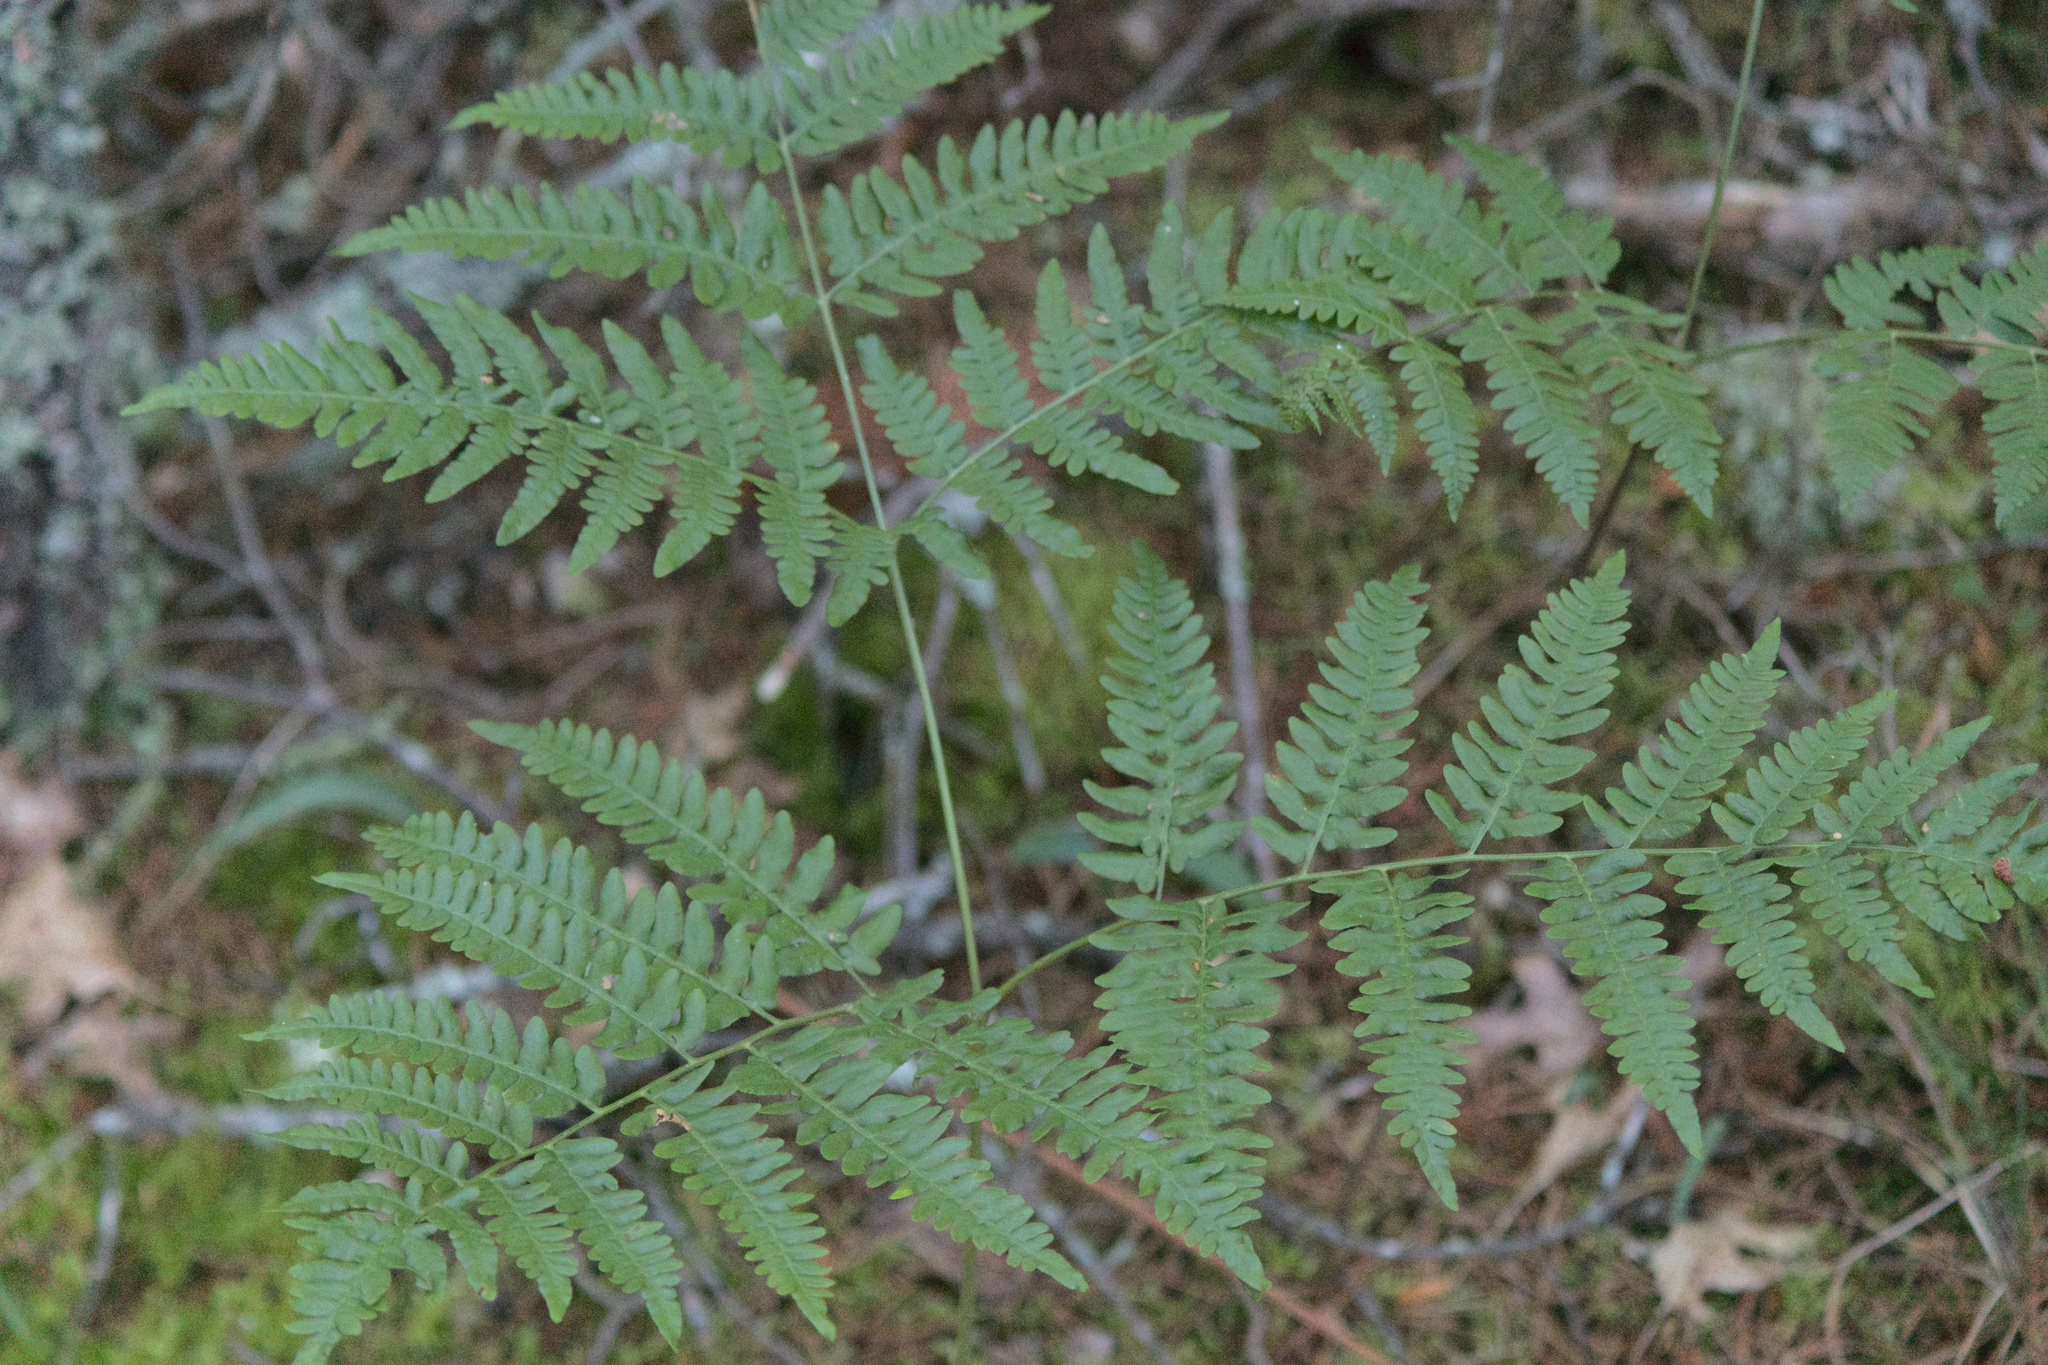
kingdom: Plantae
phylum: Tracheophyta
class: Polypodiopsida
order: Polypodiales
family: Dennstaedtiaceae
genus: Pteridium
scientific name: Pteridium aquilinum
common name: Bracken
